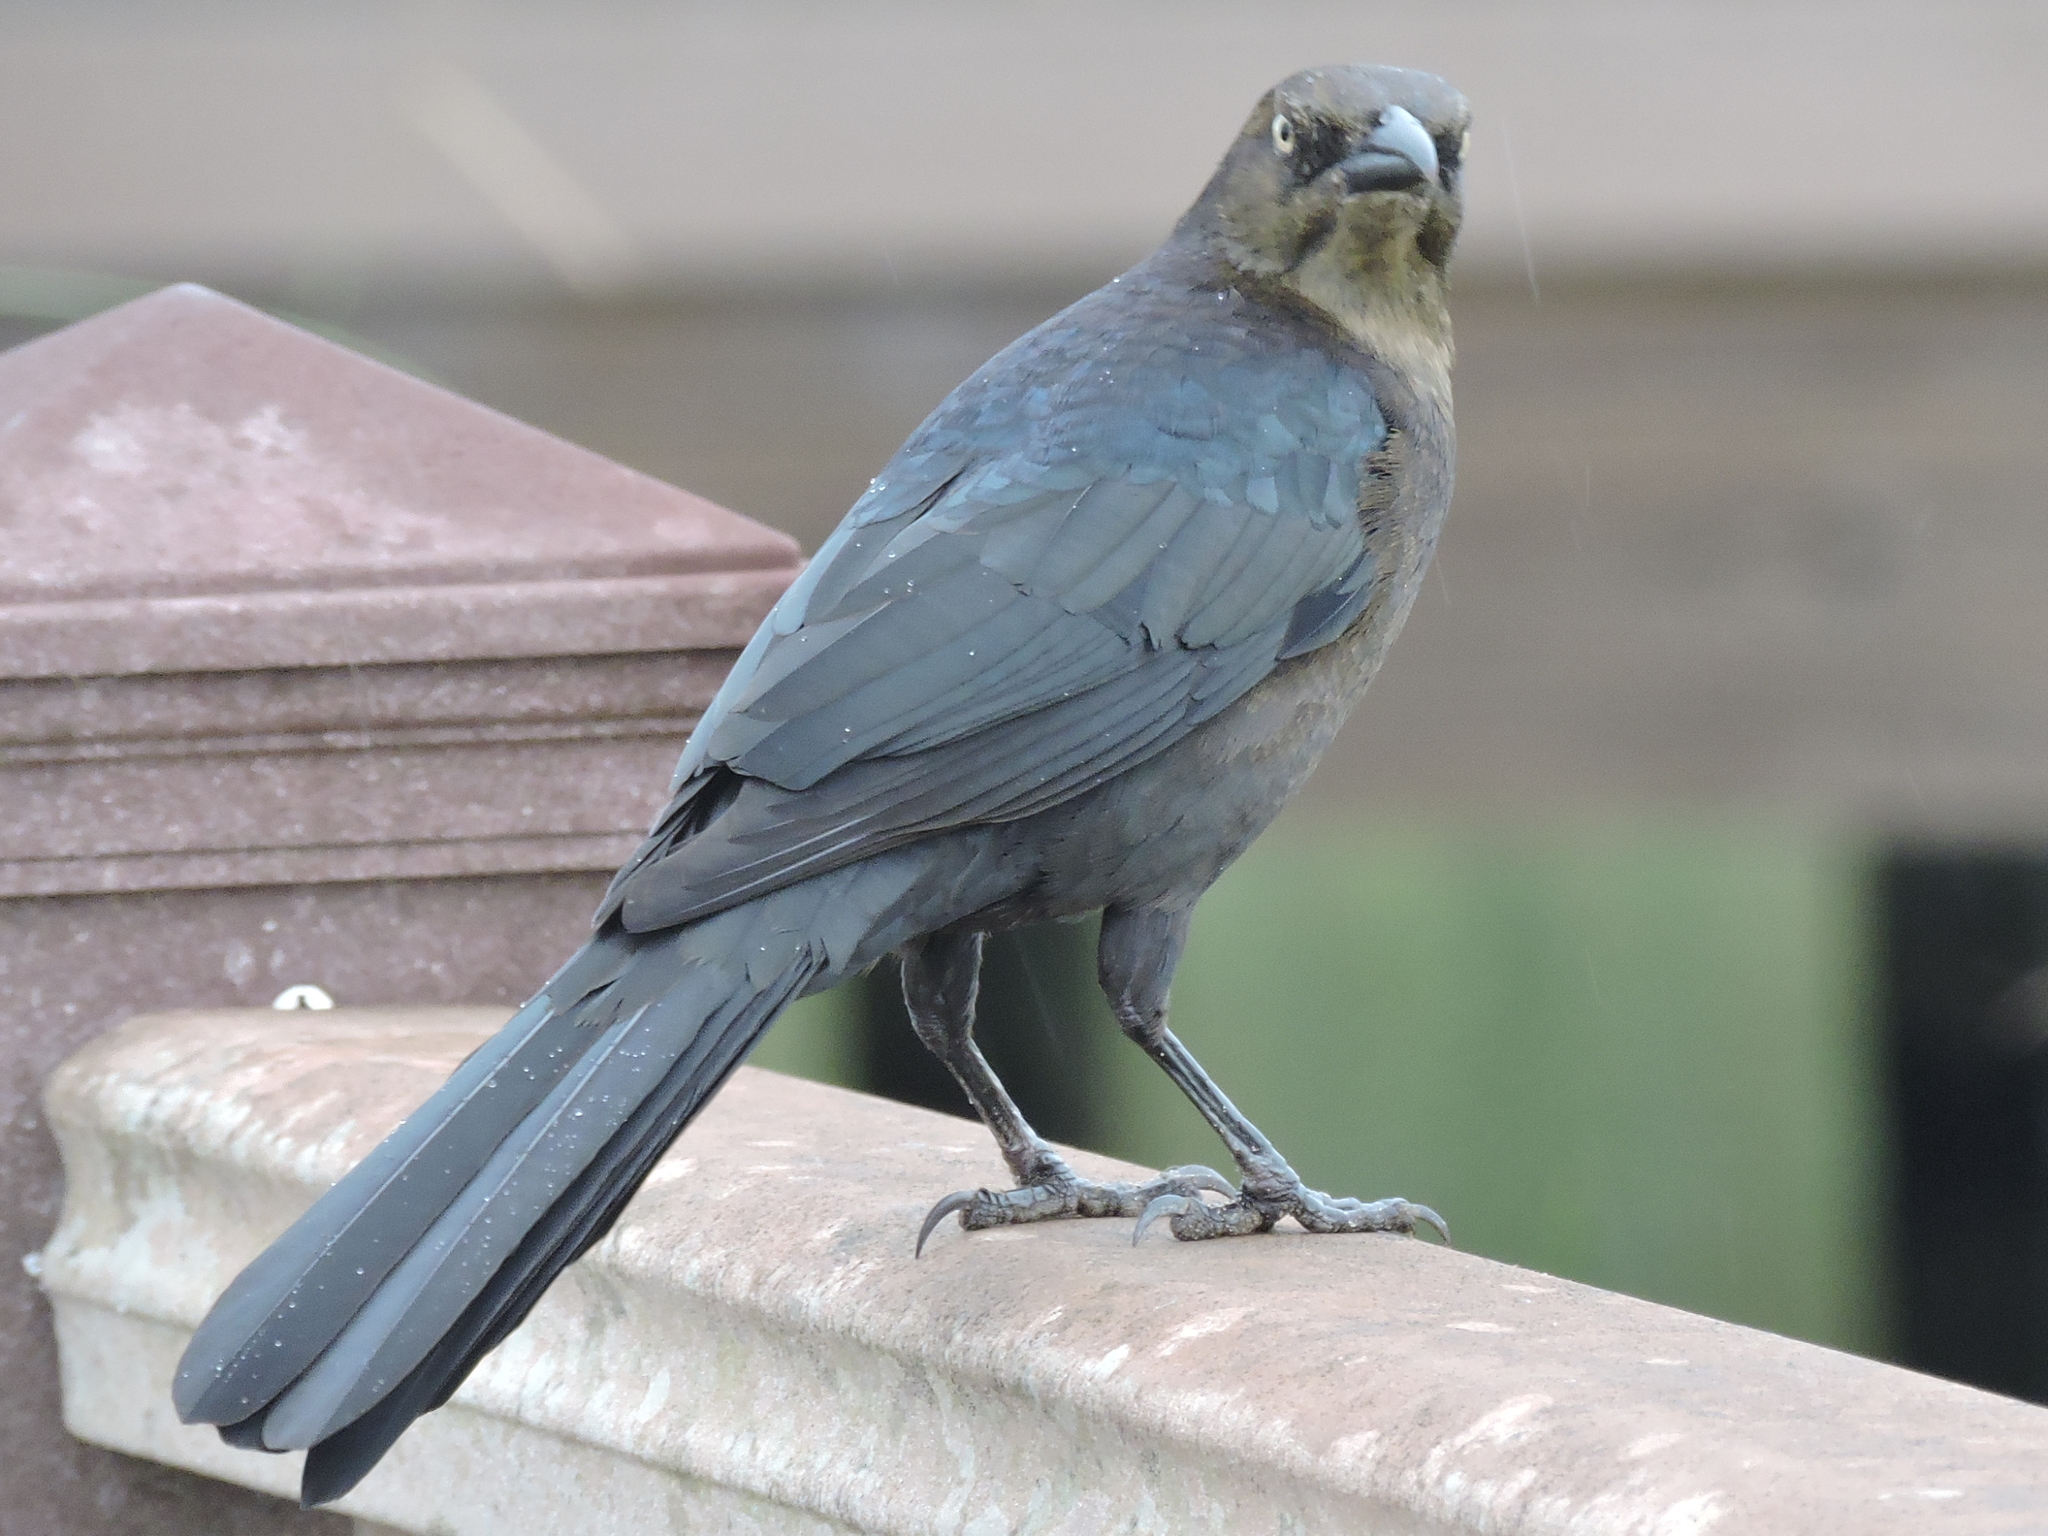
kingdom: Animalia
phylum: Chordata
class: Aves
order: Passeriformes
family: Icteridae
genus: Quiscalus
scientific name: Quiscalus mexicanus
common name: Great-tailed grackle
